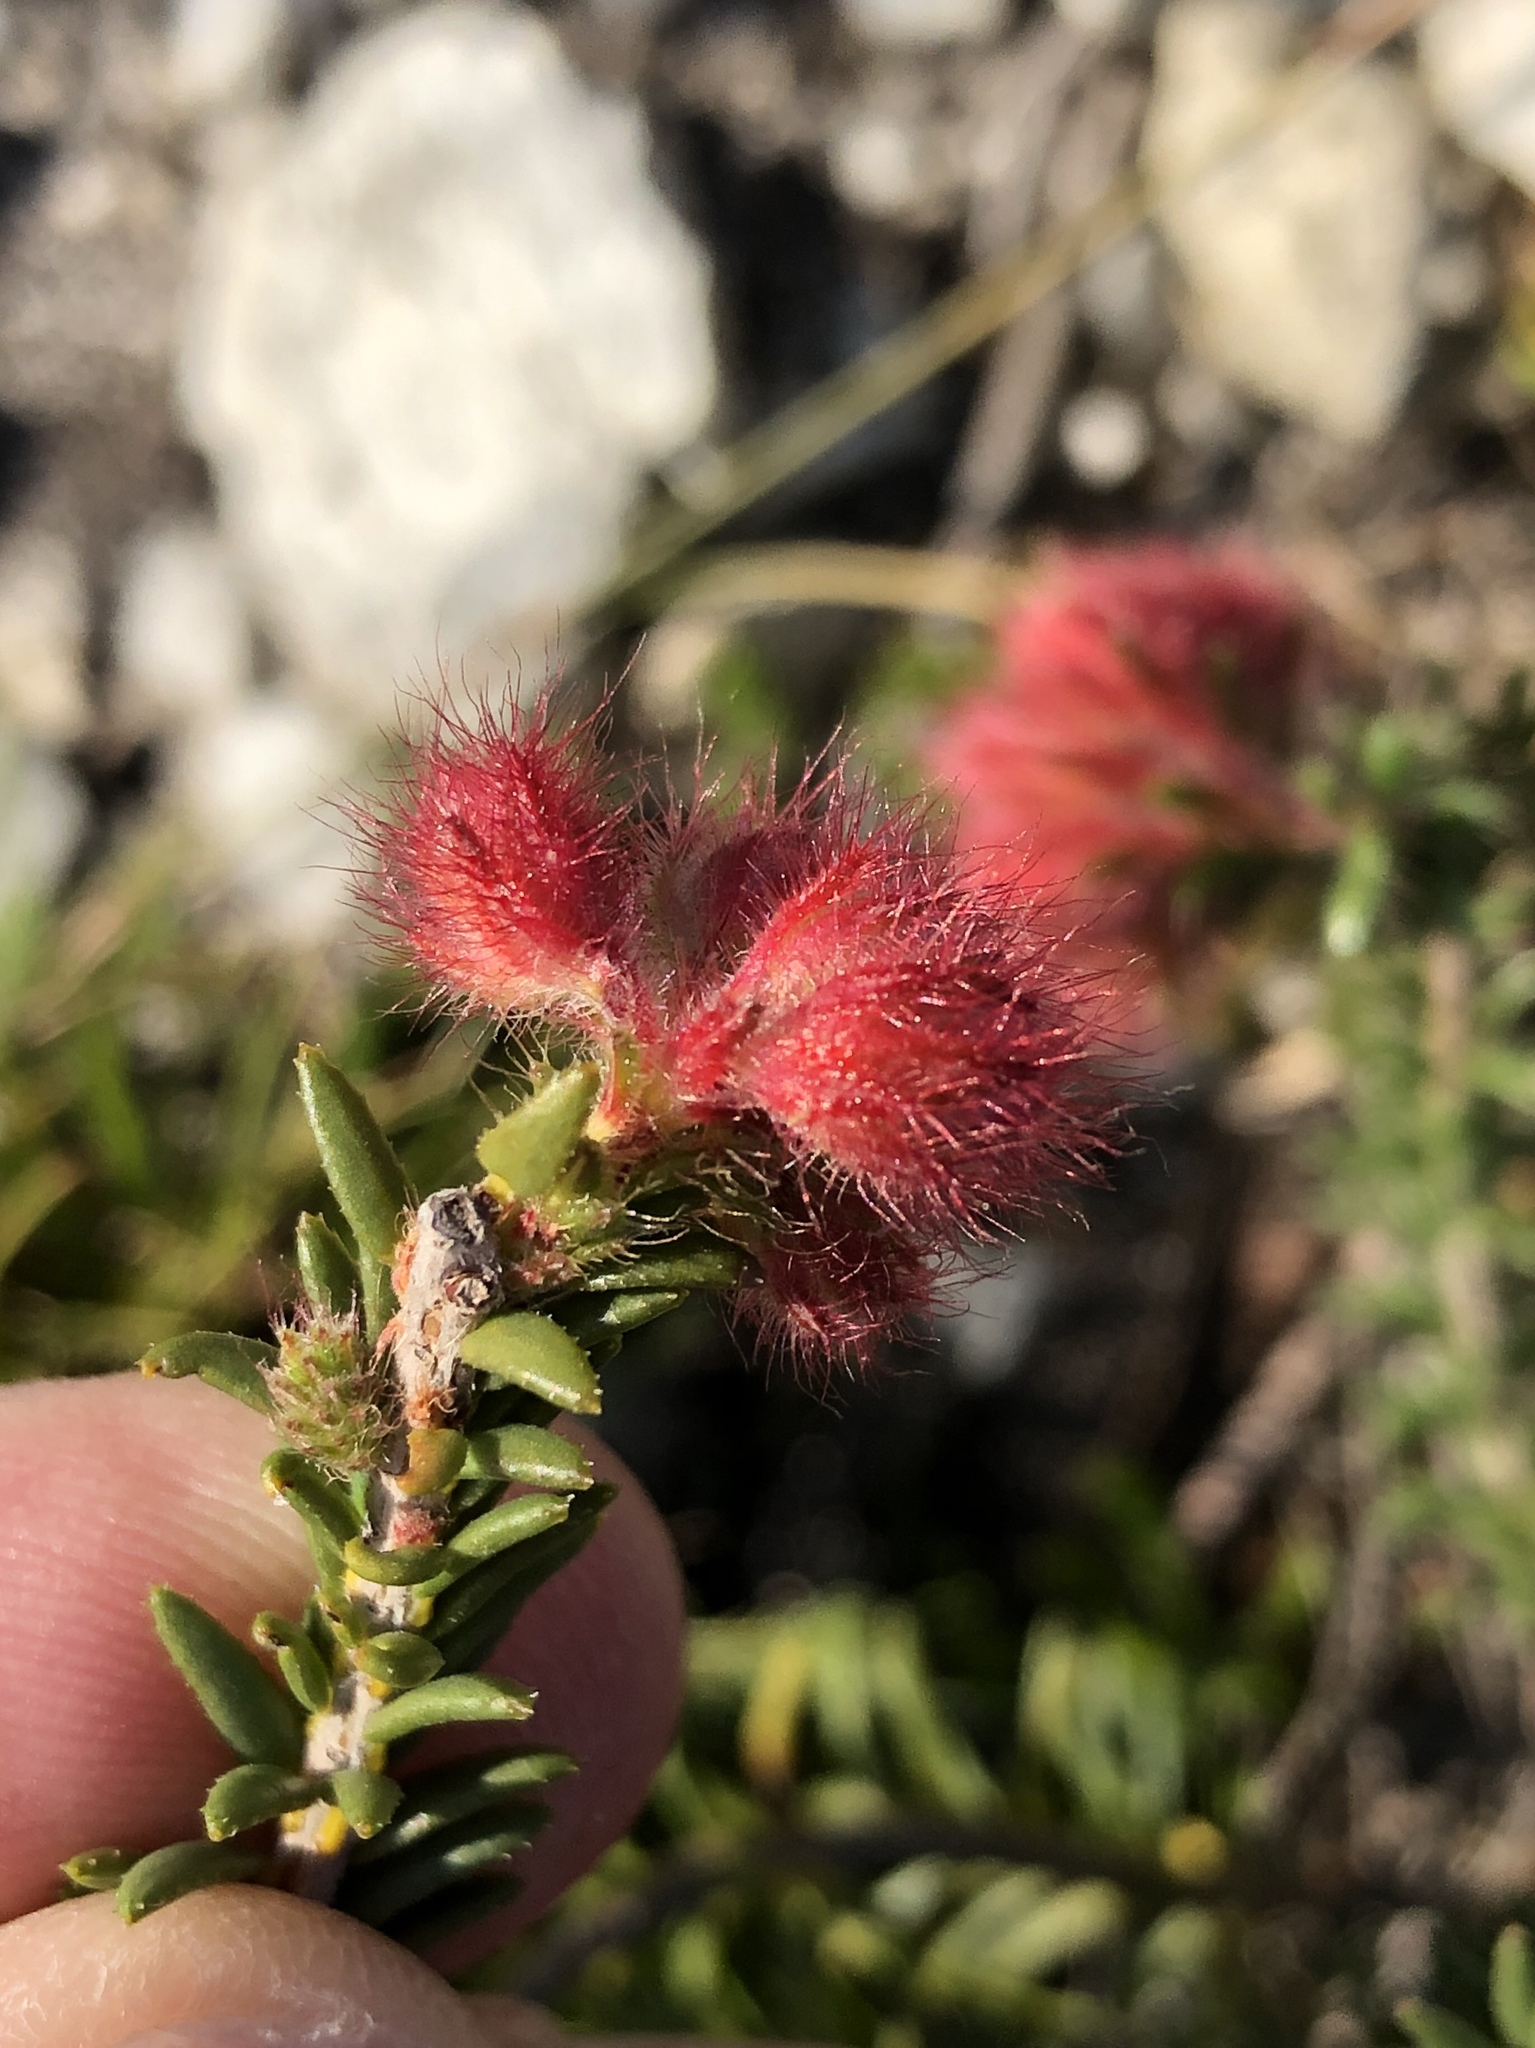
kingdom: Plantae
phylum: Tracheophyta
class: Magnoliopsida
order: Ericales
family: Ericaceae
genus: Erica
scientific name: Erica cerinthoides
